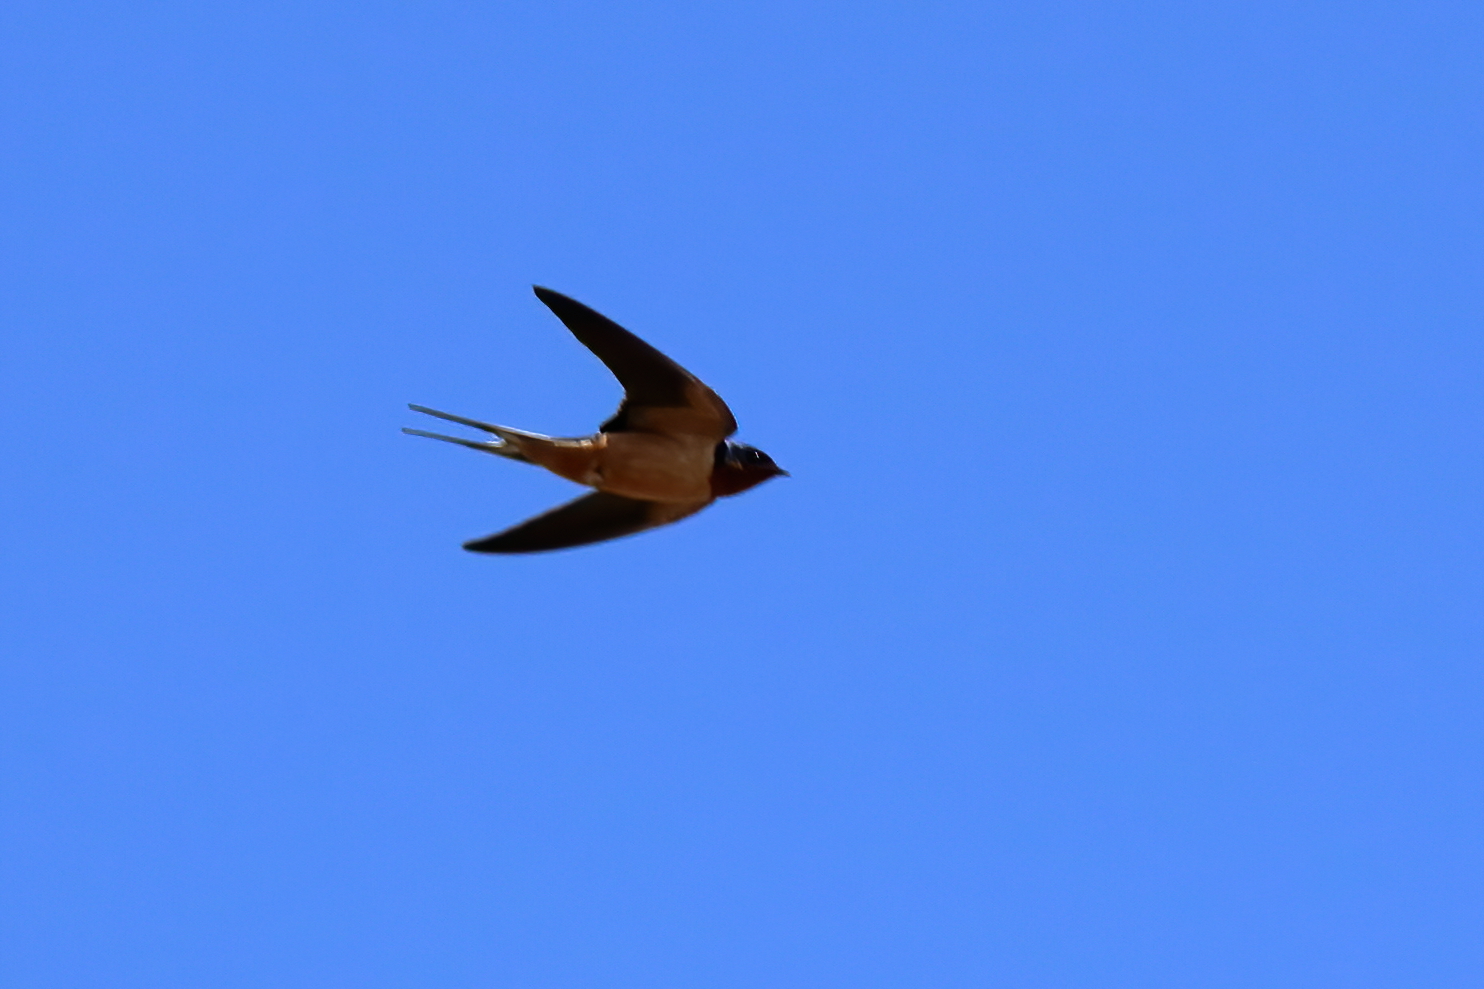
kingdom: Animalia
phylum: Chordata
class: Aves
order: Passeriformes
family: Hirundinidae
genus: Hirundo
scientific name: Hirundo rustica
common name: Barn swallow
